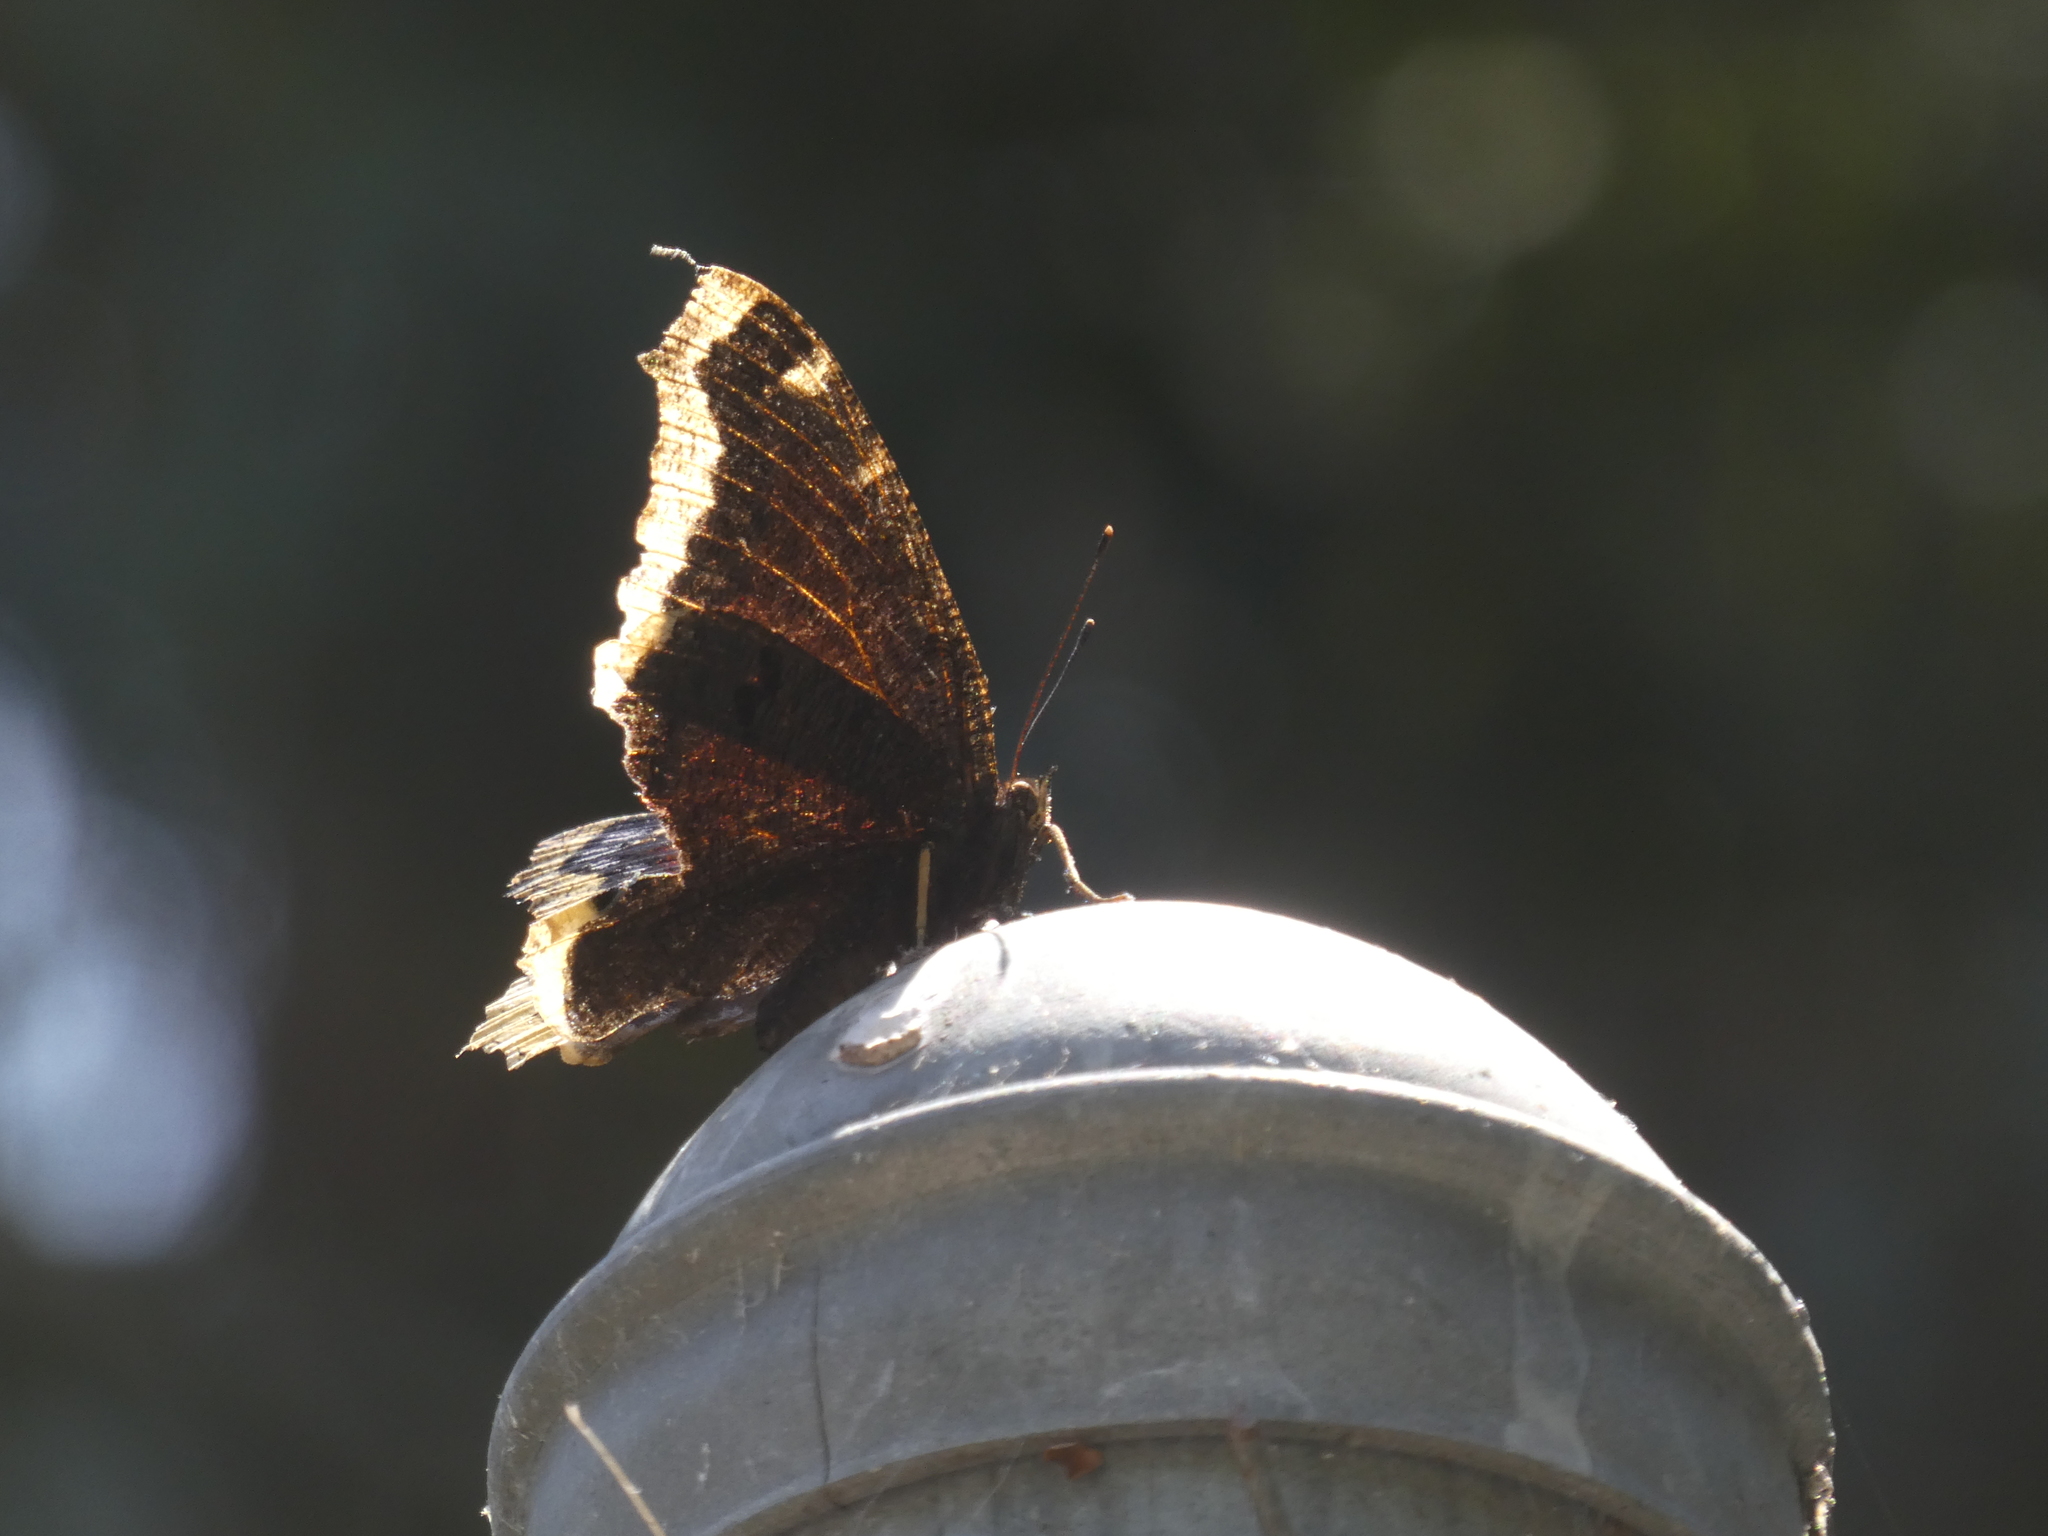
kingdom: Animalia
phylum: Arthropoda
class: Insecta
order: Lepidoptera
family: Nymphalidae
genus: Nymphalis
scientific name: Nymphalis antiopa
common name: Camberwell beauty
